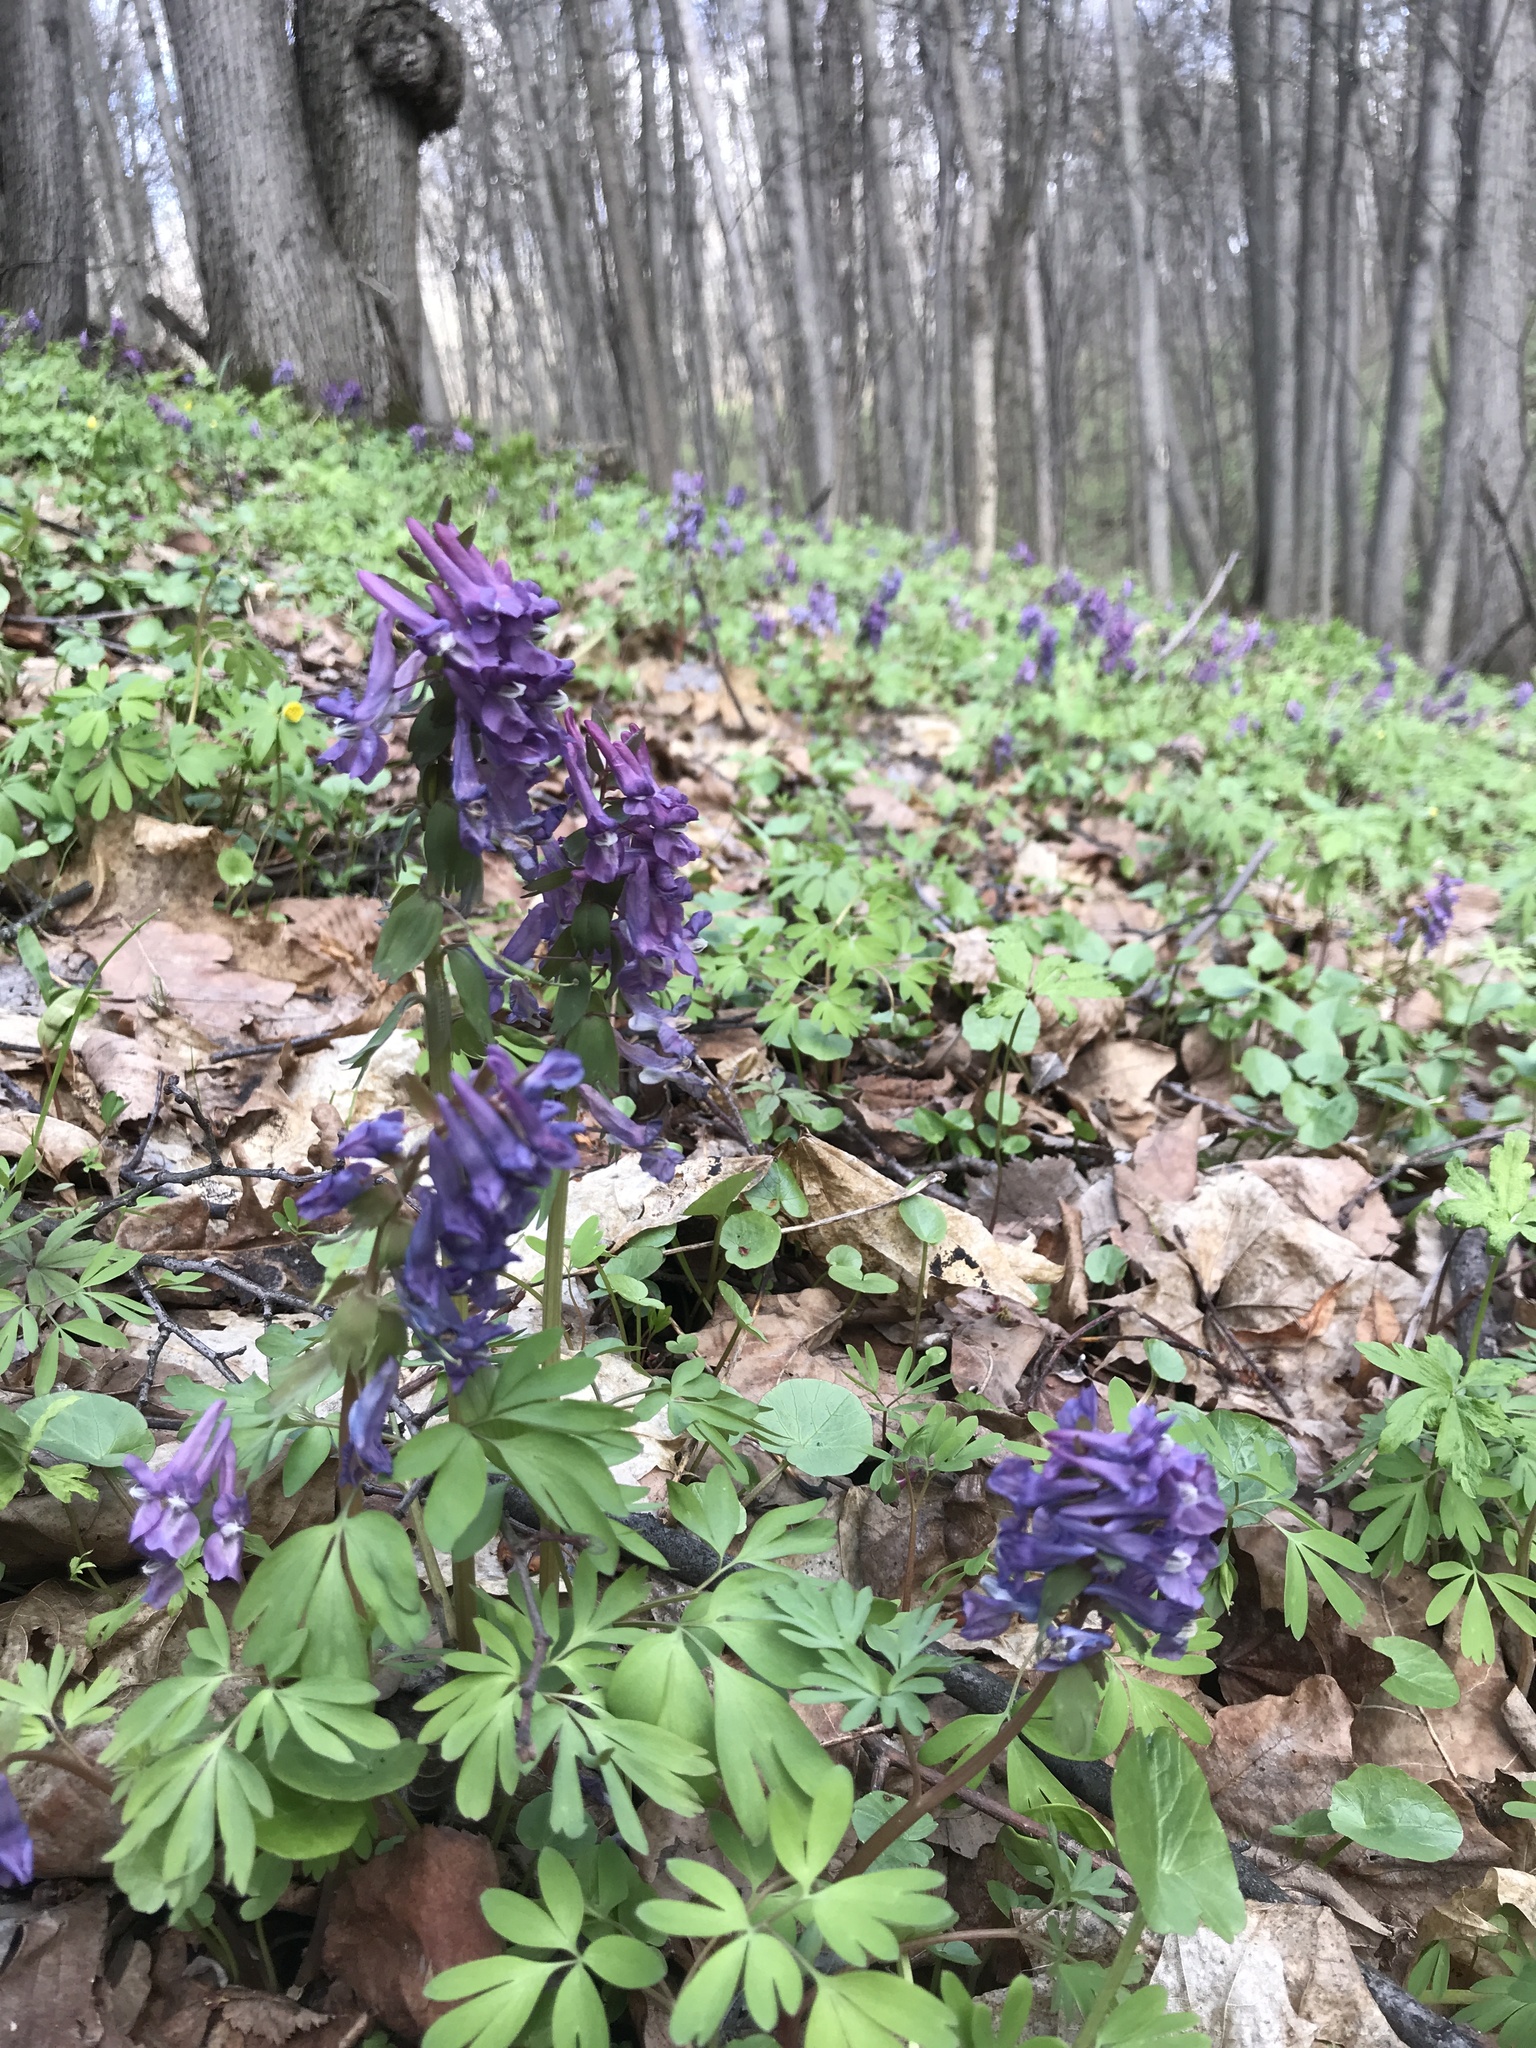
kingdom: Plantae
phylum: Tracheophyta
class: Magnoliopsida
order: Ranunculales
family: Papaveraceae
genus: Corydalis
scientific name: Corydalis solida
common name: Bird-in-a-bush
